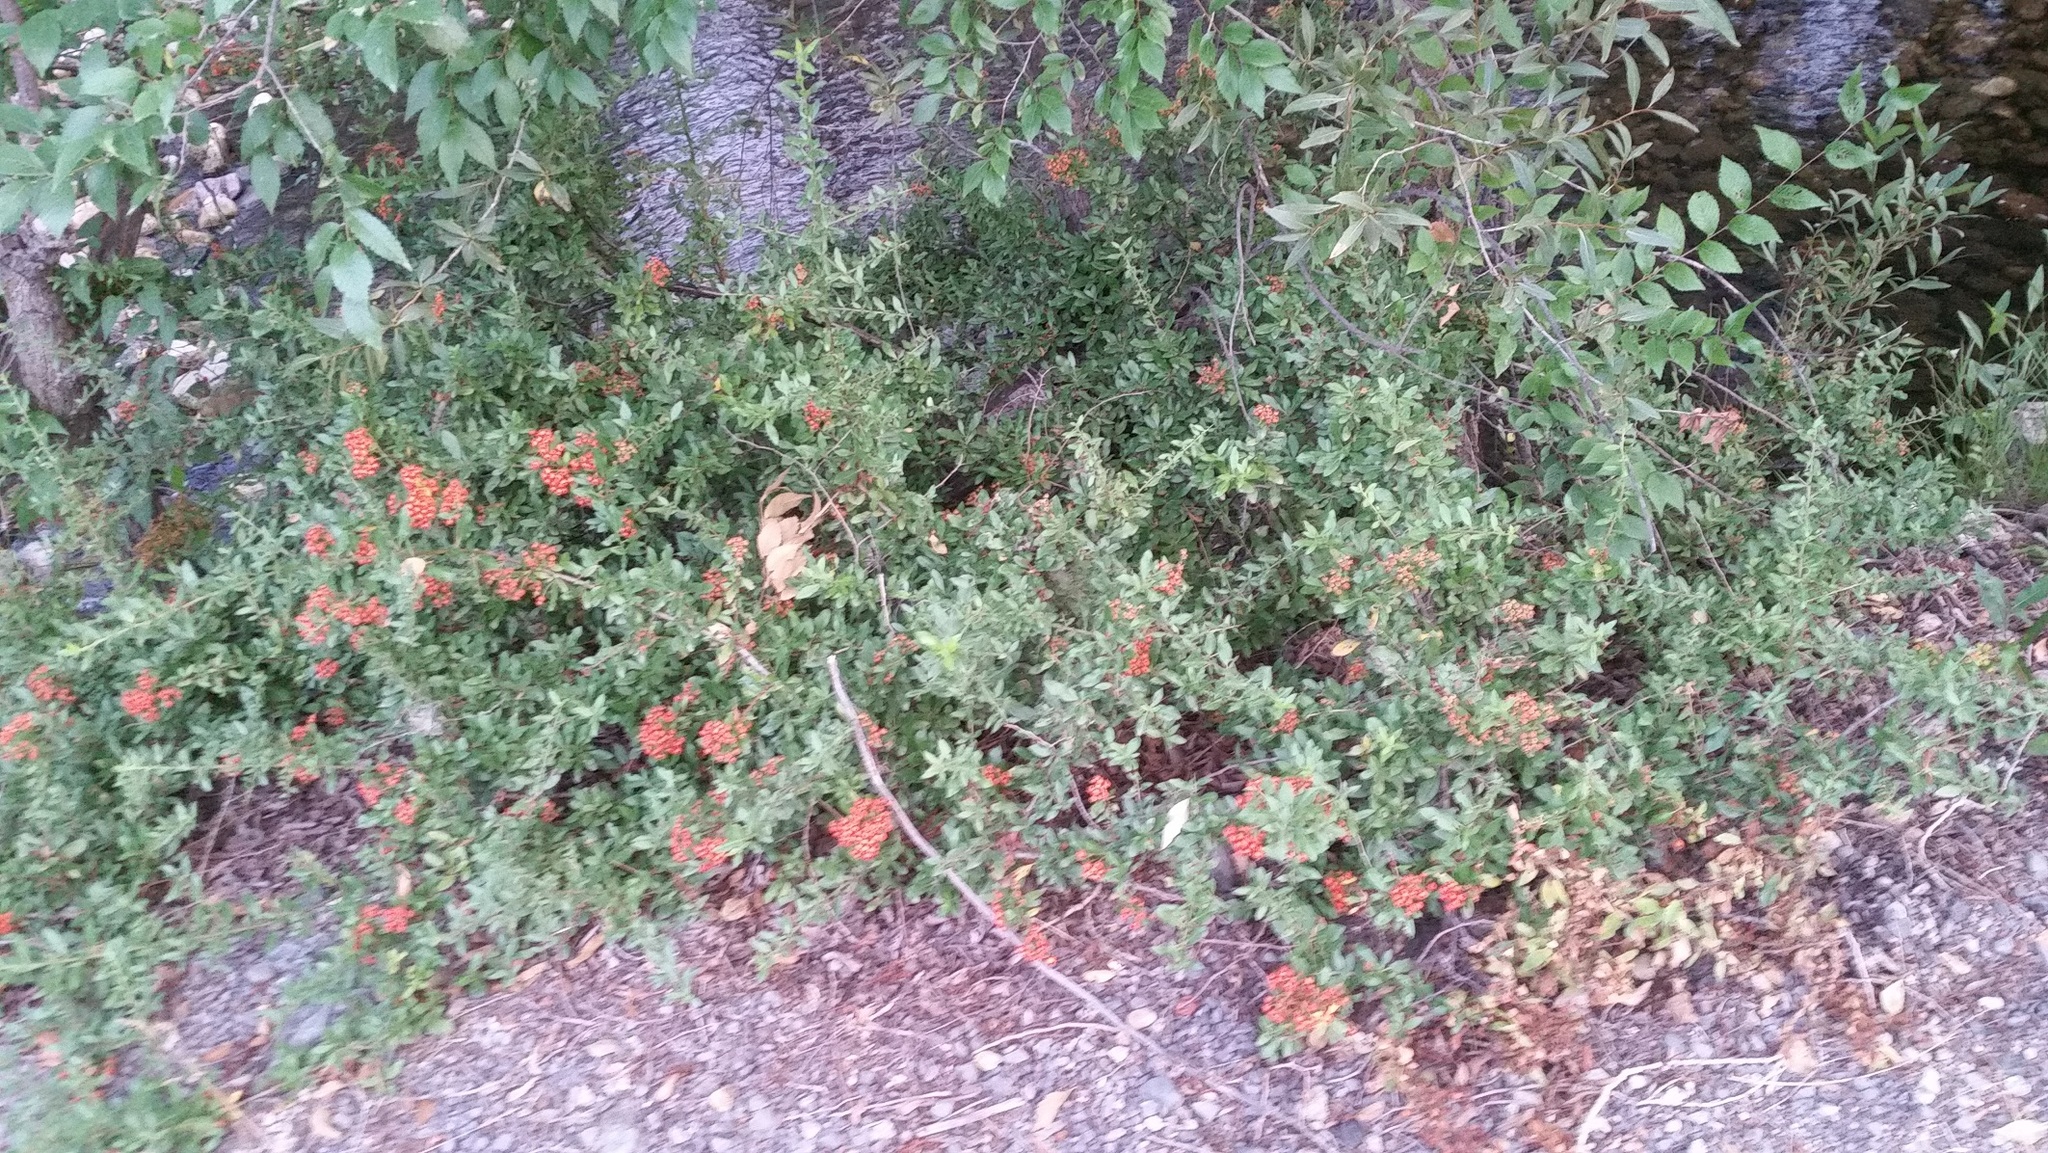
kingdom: Plantae
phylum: Tracheophyta
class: Magnoliopsida
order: Rosales
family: Rosaceae
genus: Pyracantha
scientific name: Pyracantha coccinea
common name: Firethorn
